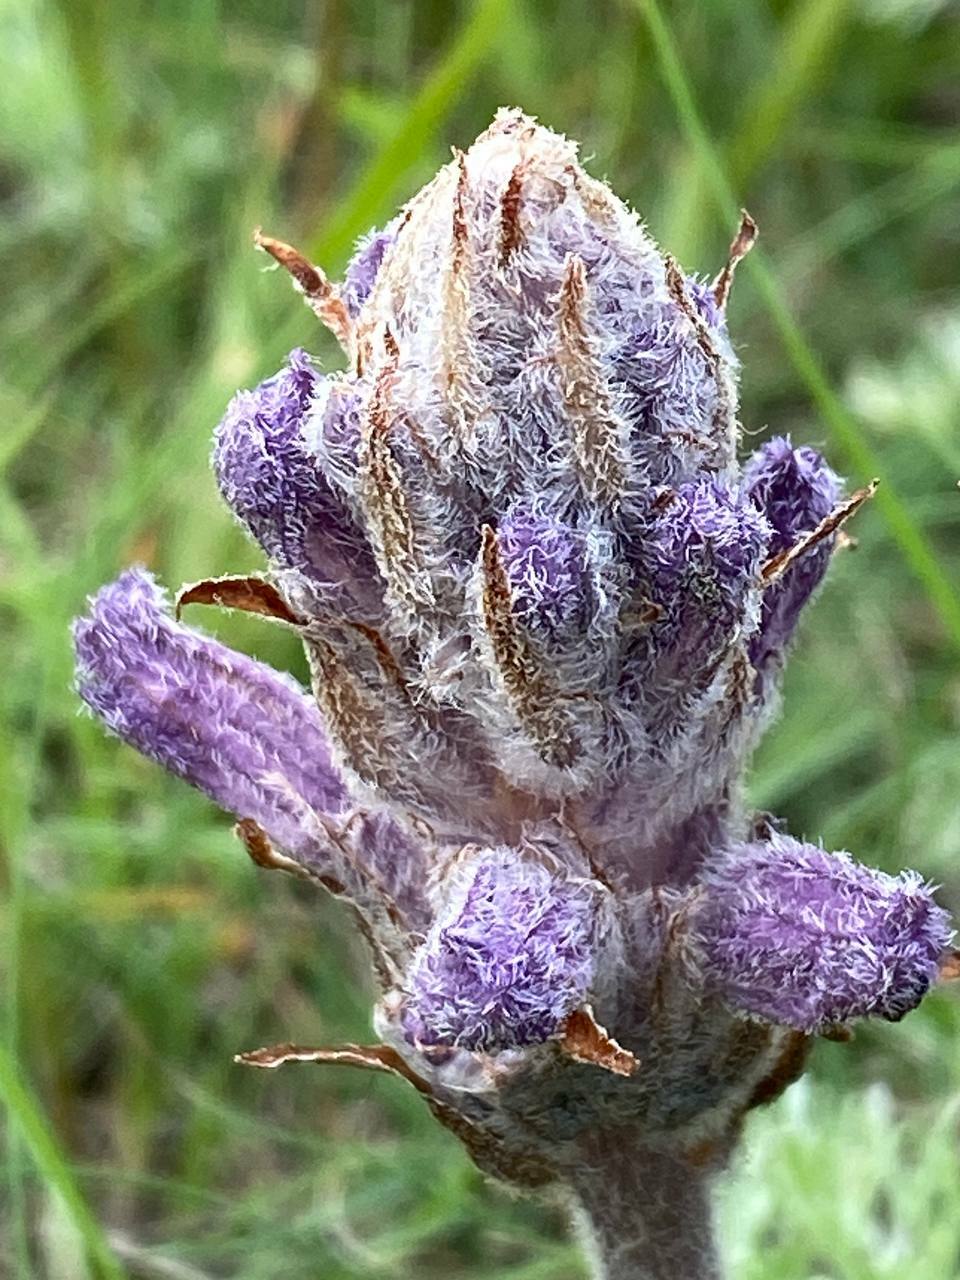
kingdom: Plantae
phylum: Tracheophyta
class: Magnoliopsida
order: Lamiales
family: Orobanchaceae
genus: Phelipanche
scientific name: Phelipanche caesia
